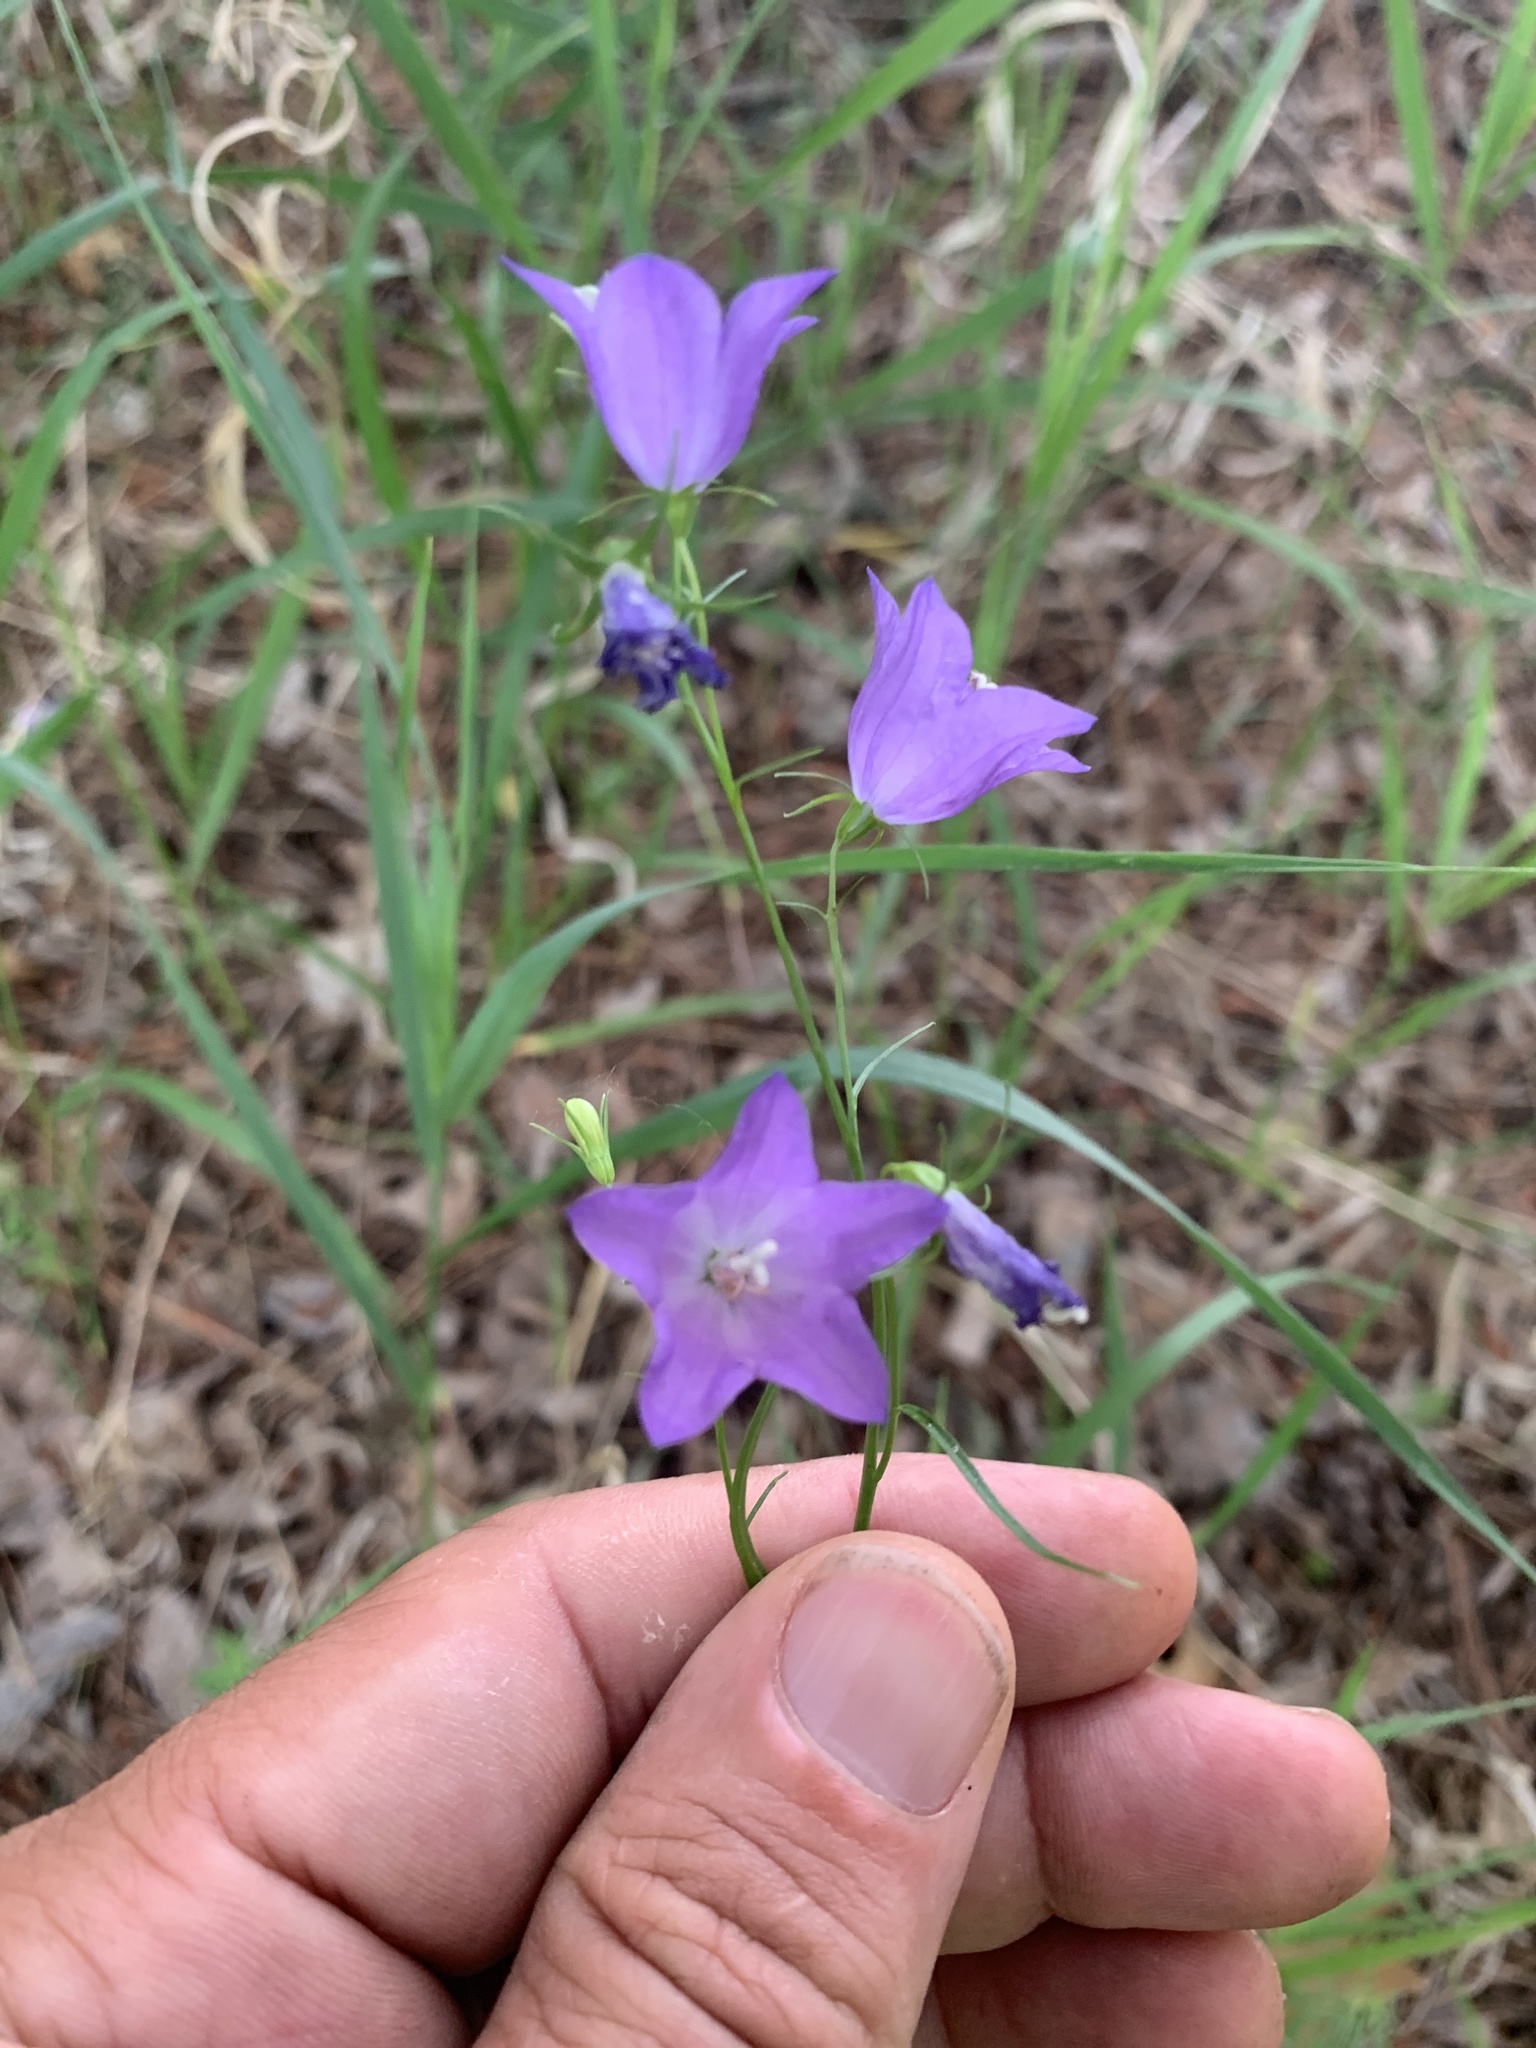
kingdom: Plantae
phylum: Tracheophyta
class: Magnoliopsida
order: Asterales
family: Campanulaceae
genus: Campanula
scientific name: Campanula intercedens
